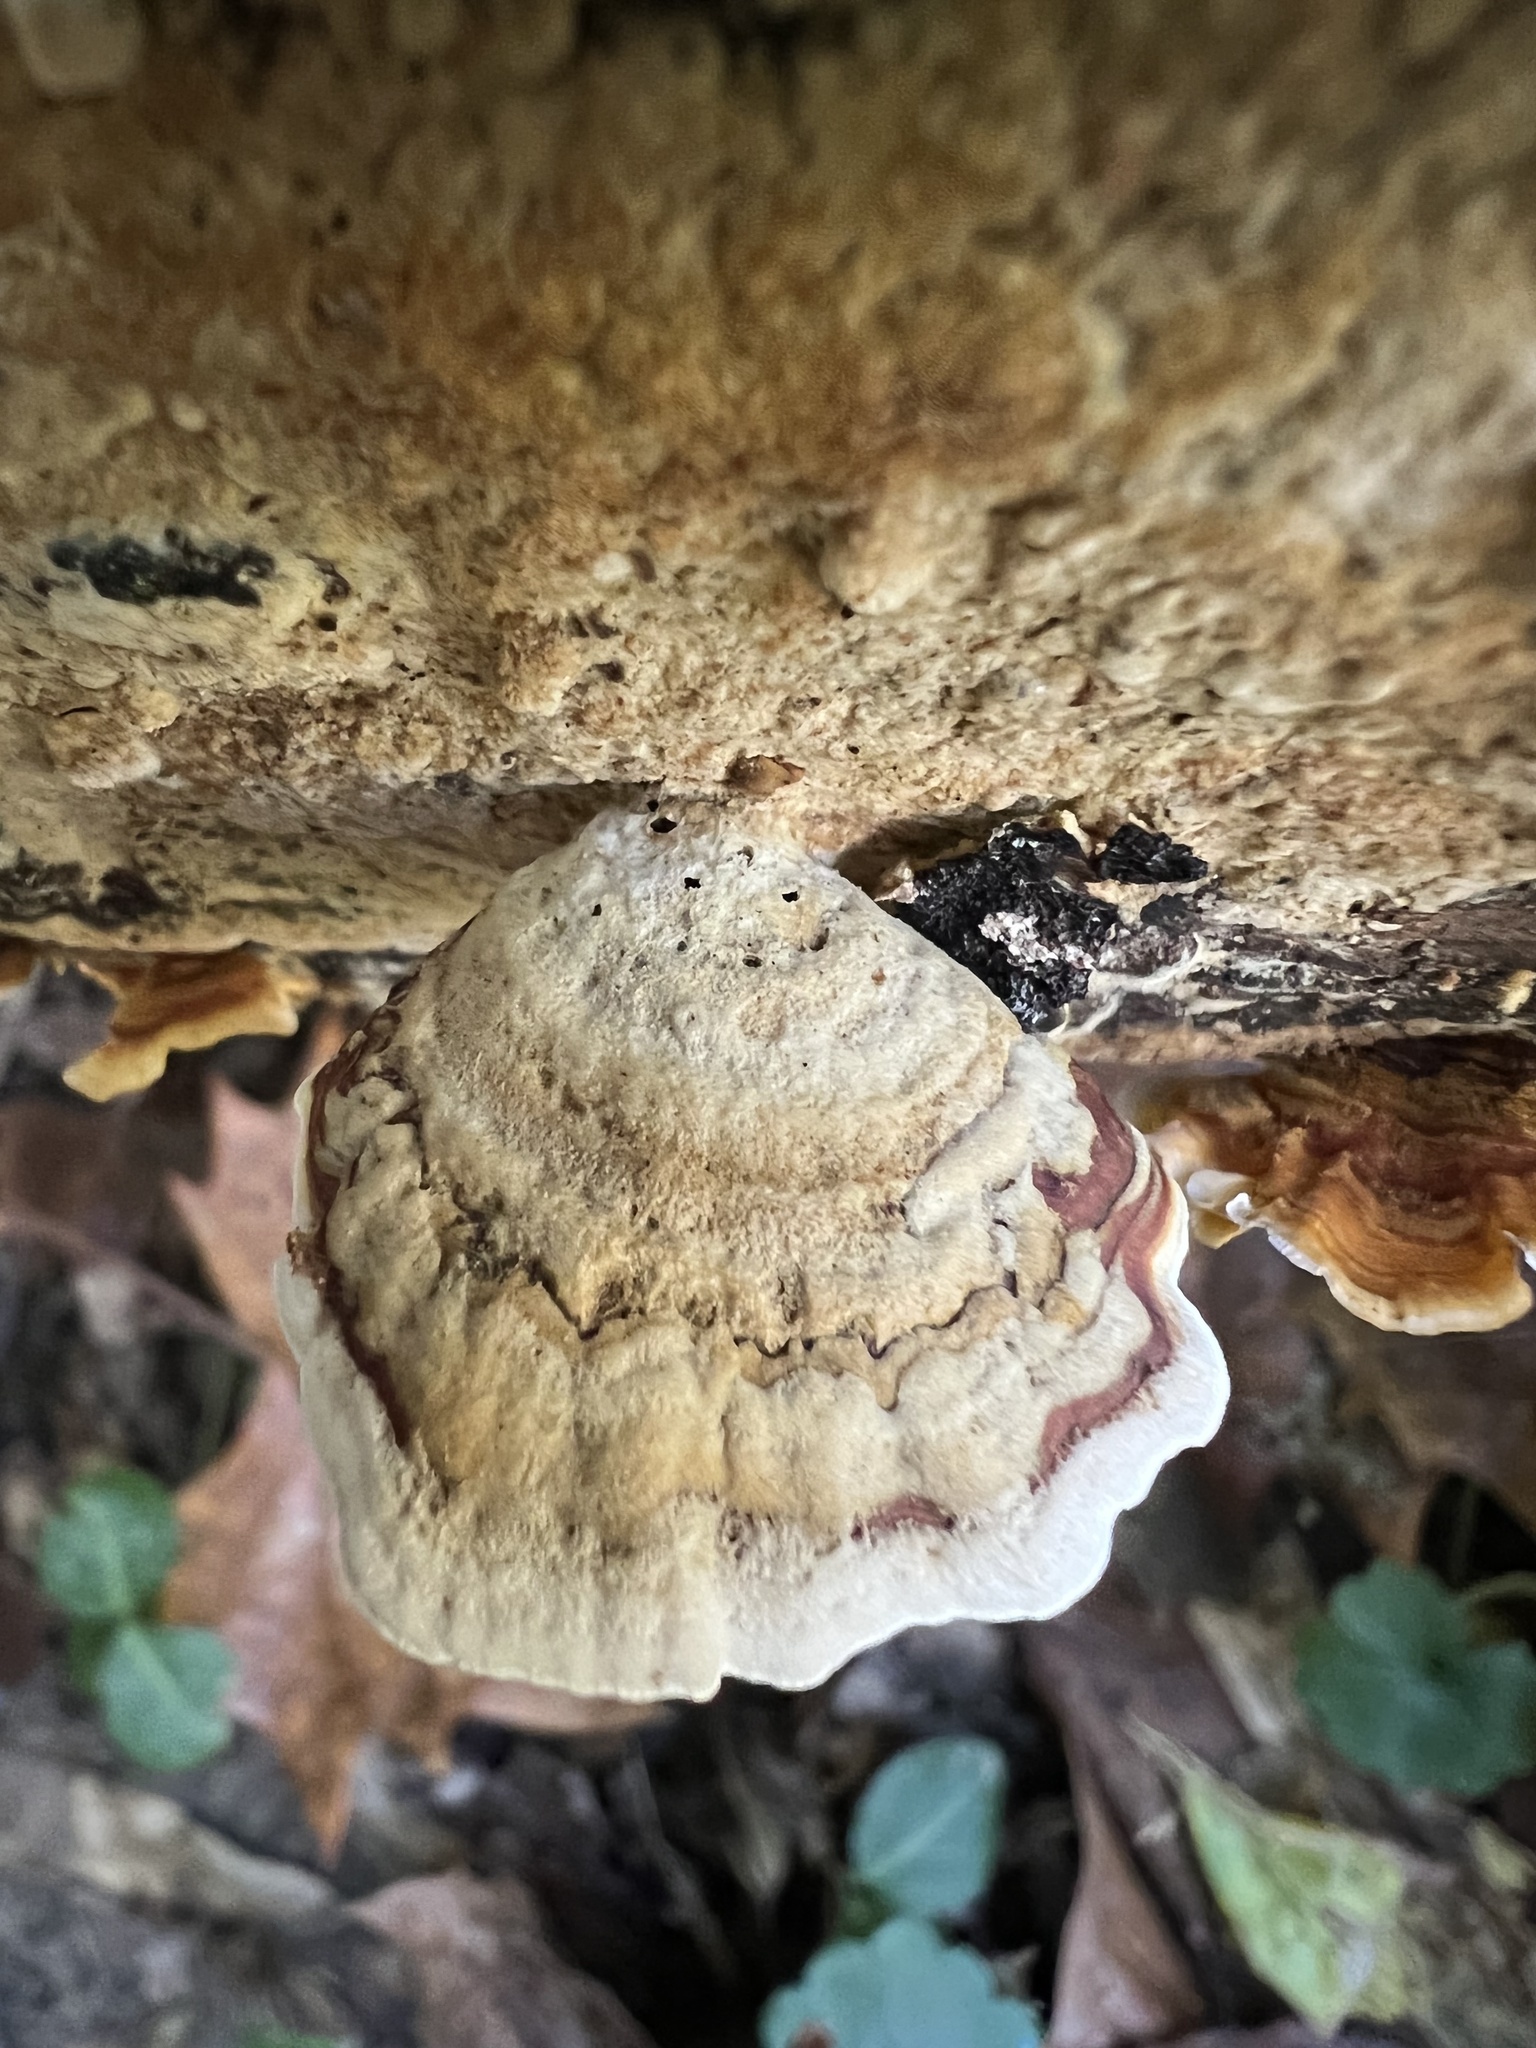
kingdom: Fungi
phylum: Basidiomycota
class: Agaricomycetes
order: Russulales
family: Stereaceae
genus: Stereum
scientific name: Stereum lobatum
